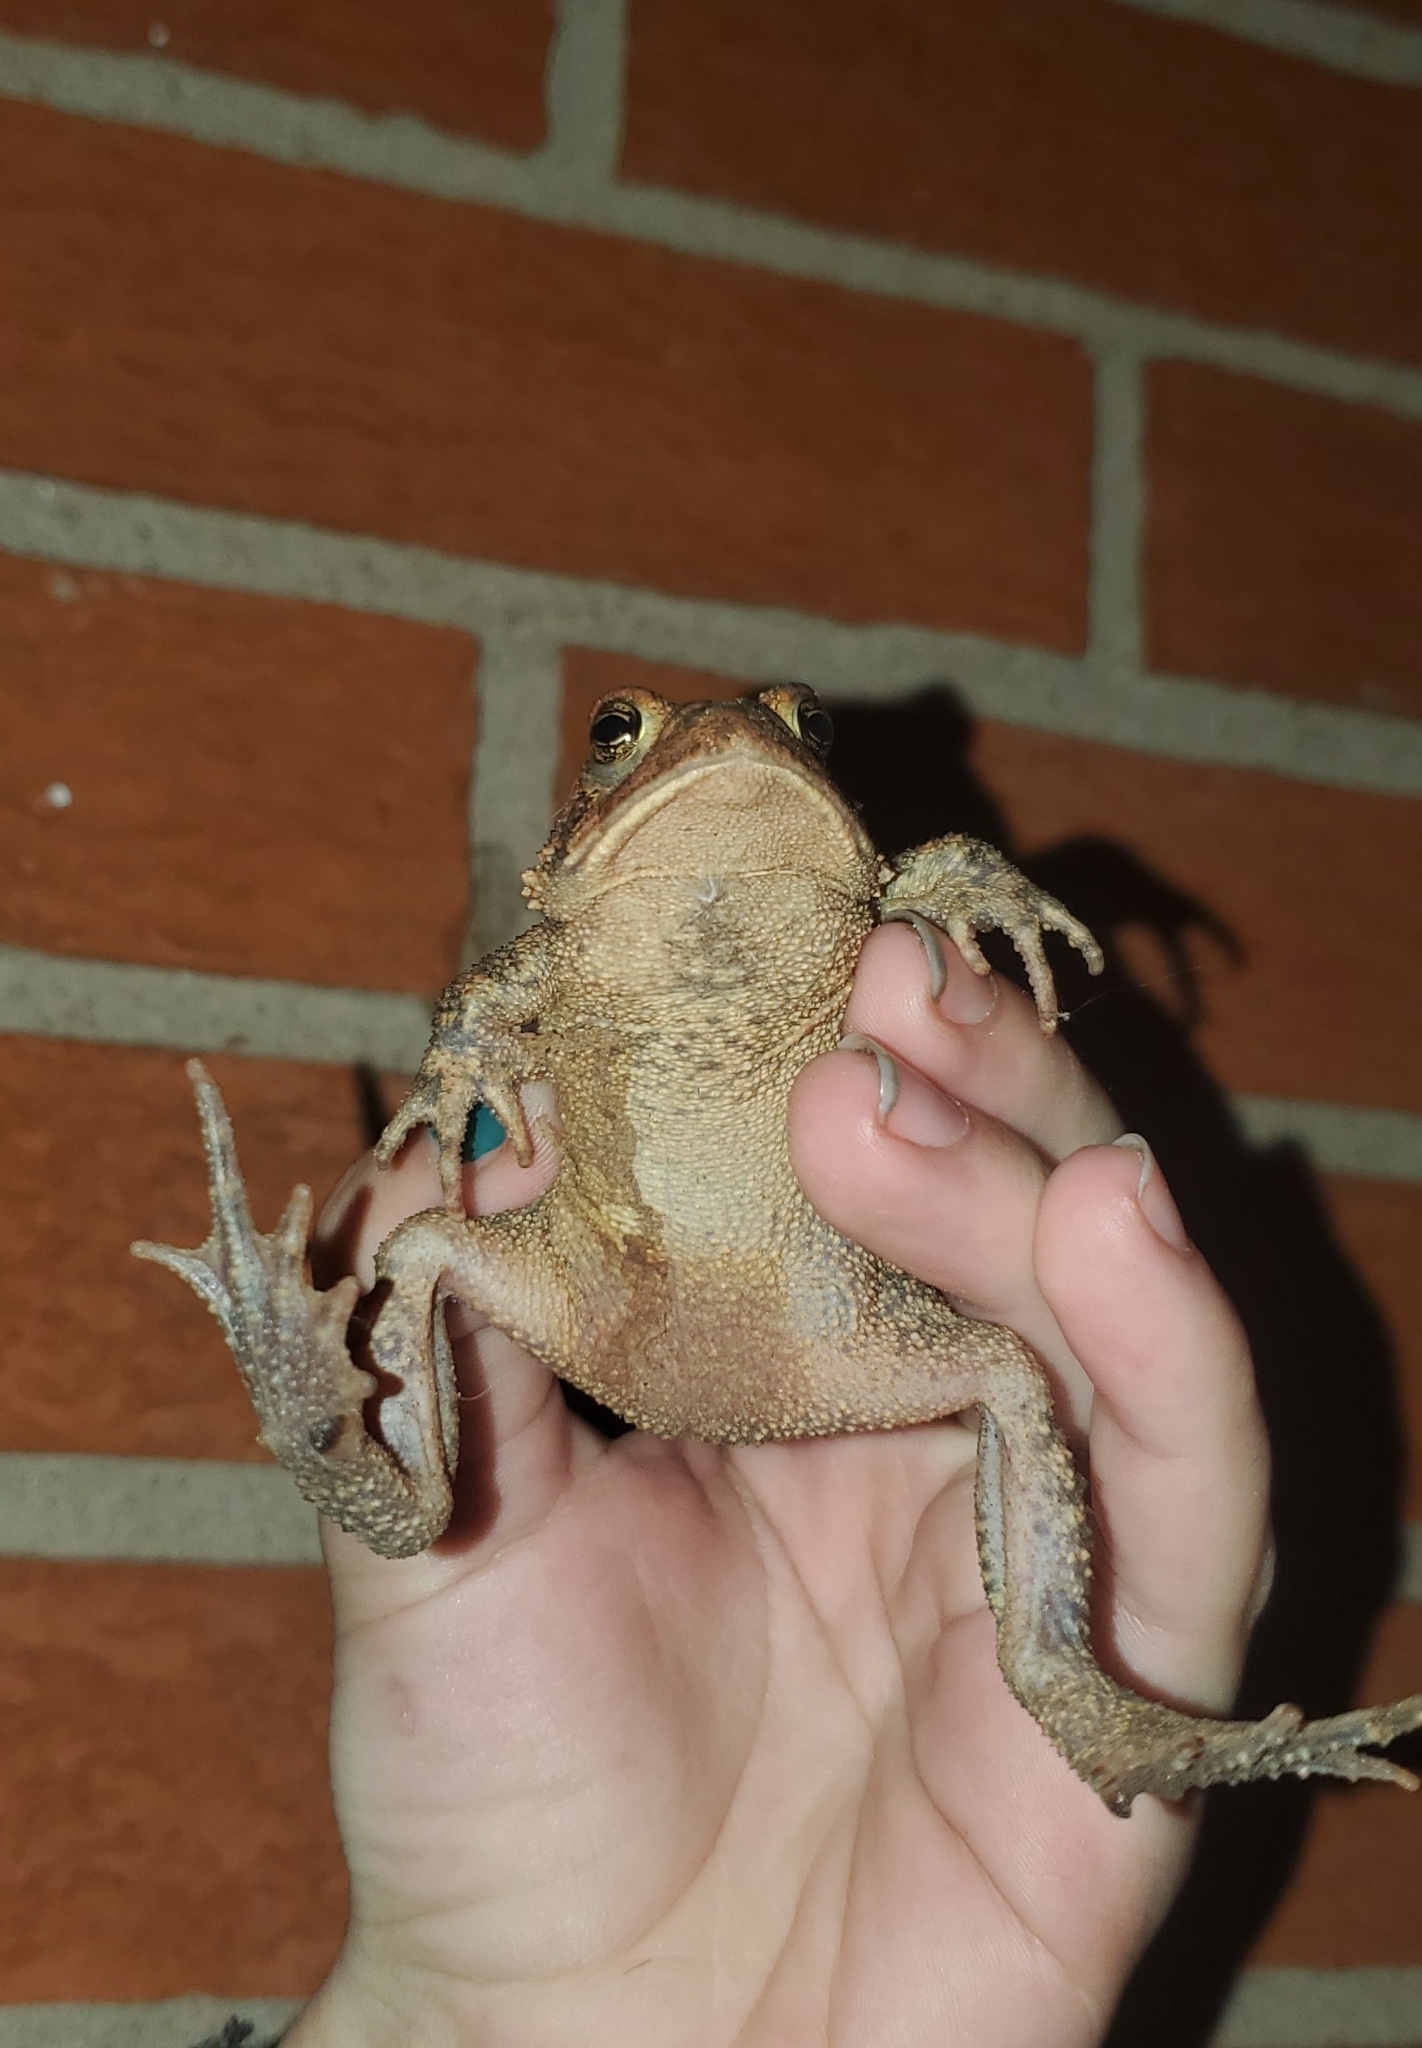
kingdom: Animalia
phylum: Chordata
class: Amphibia
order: Anura
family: Bufonidae
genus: Anaxyrus
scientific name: Anaxyrus americanus
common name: American toad
